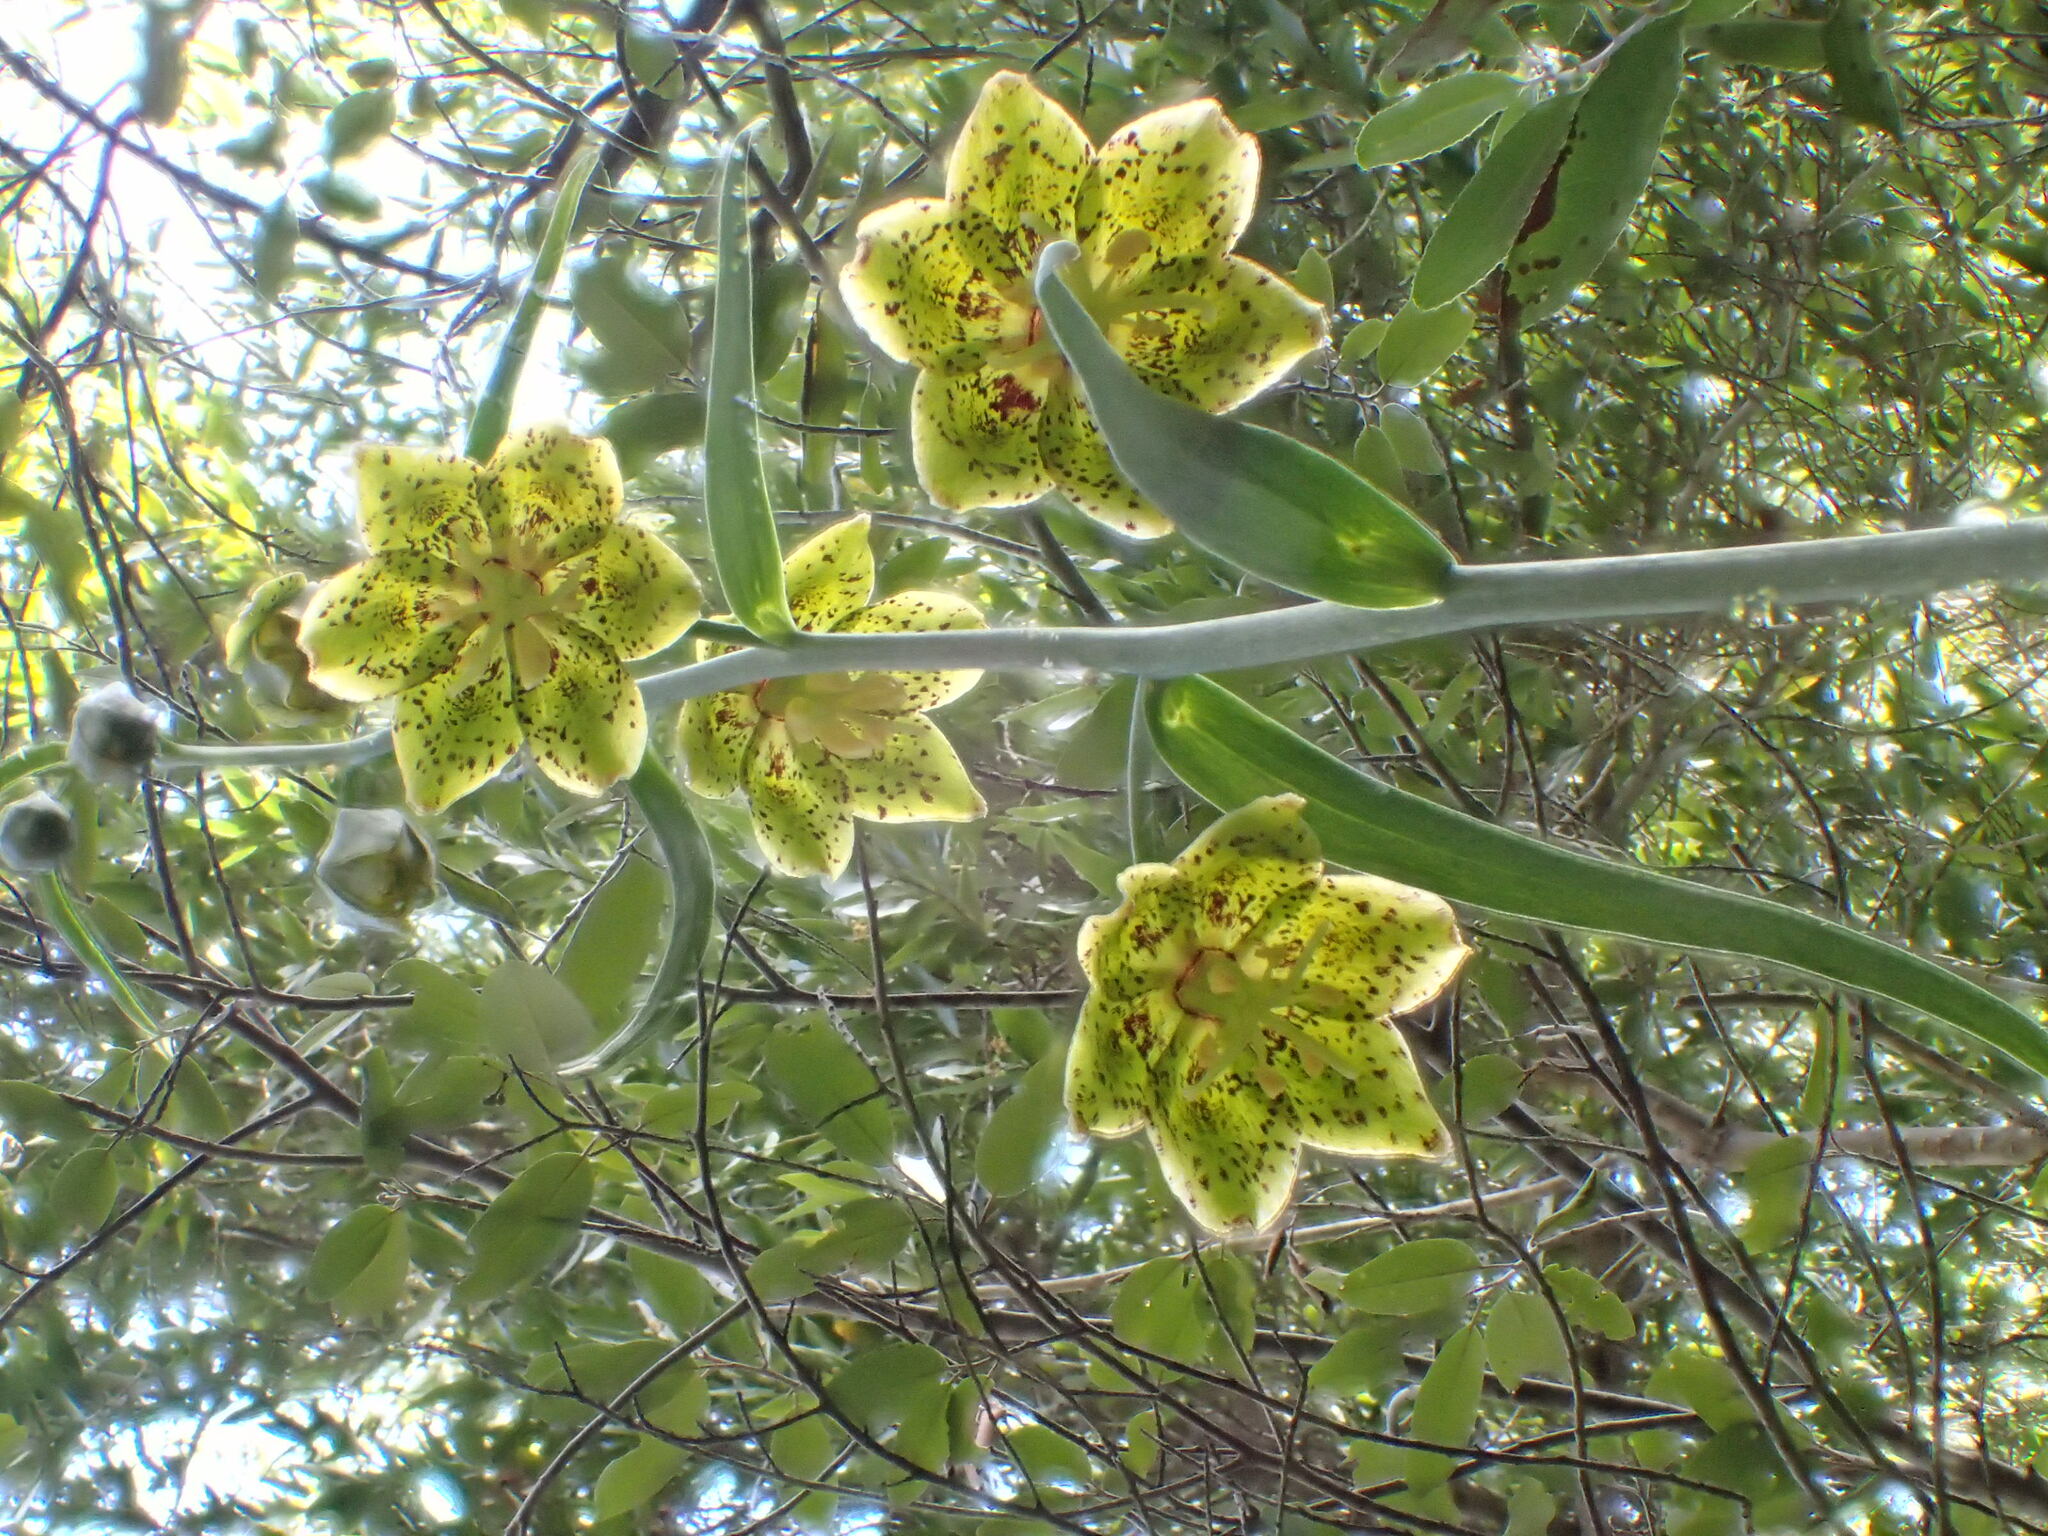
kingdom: Plantae
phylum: Tracheophyta
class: Liliopsida
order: Liliales
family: Liliaceae
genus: Fritillaria
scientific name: Fritillaria ojaiensis
